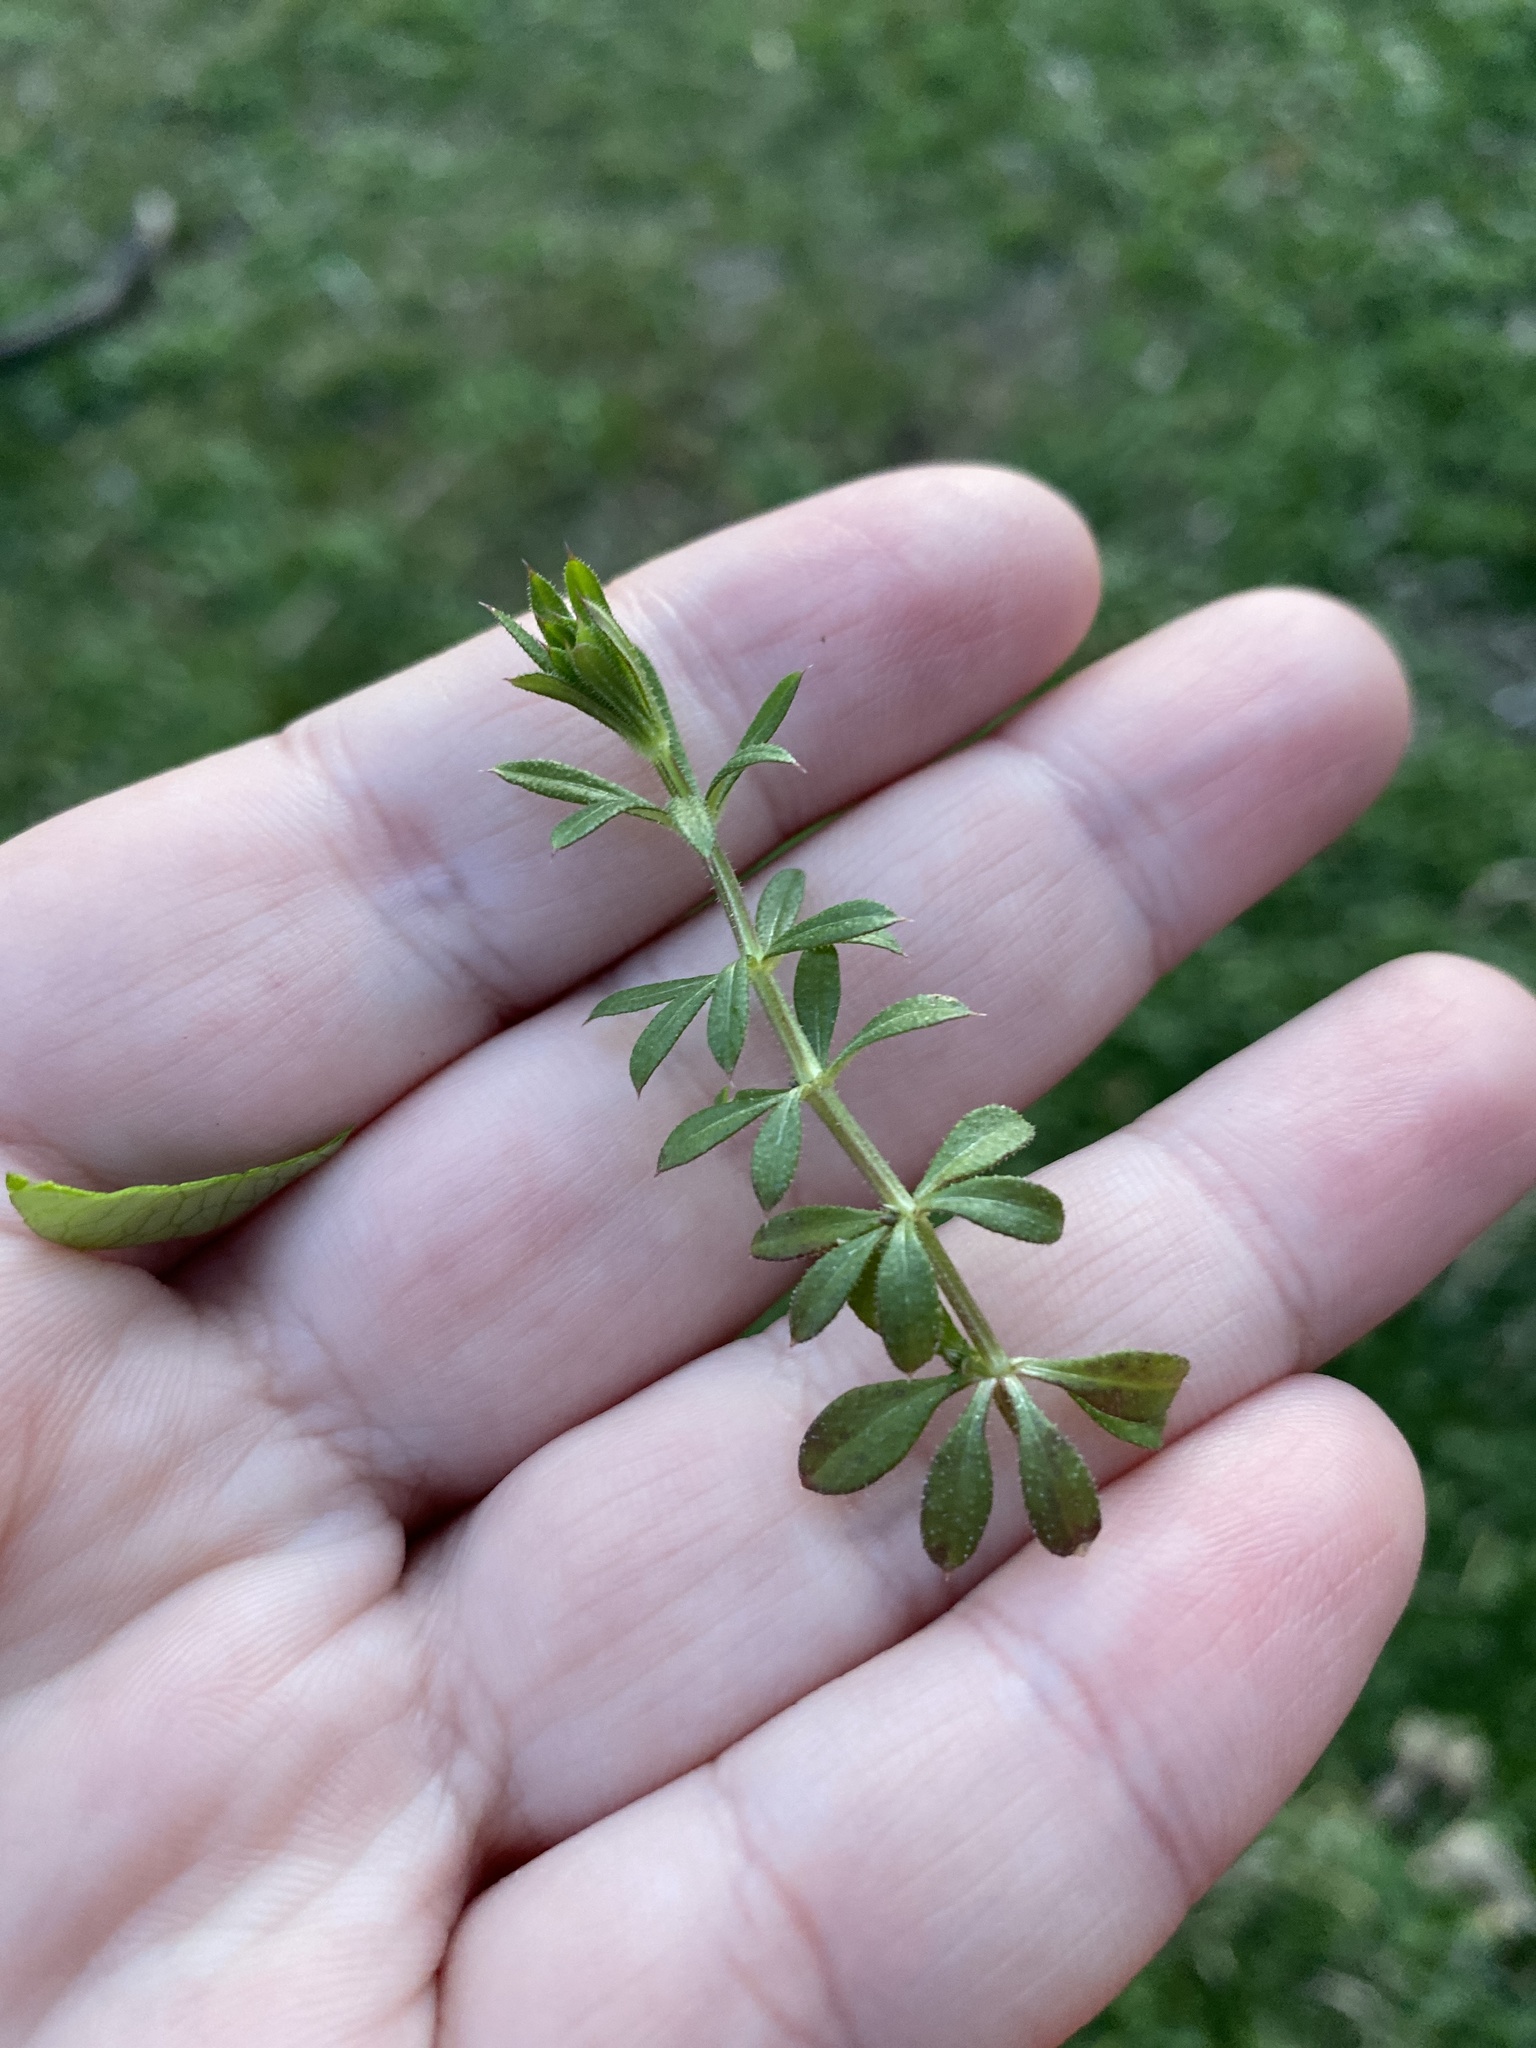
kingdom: Plantae
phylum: Tracheophyta
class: Magnoliopsida
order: Gentianales
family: Rubiaceae
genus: Galium
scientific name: Galium aparine
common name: Cleavers
